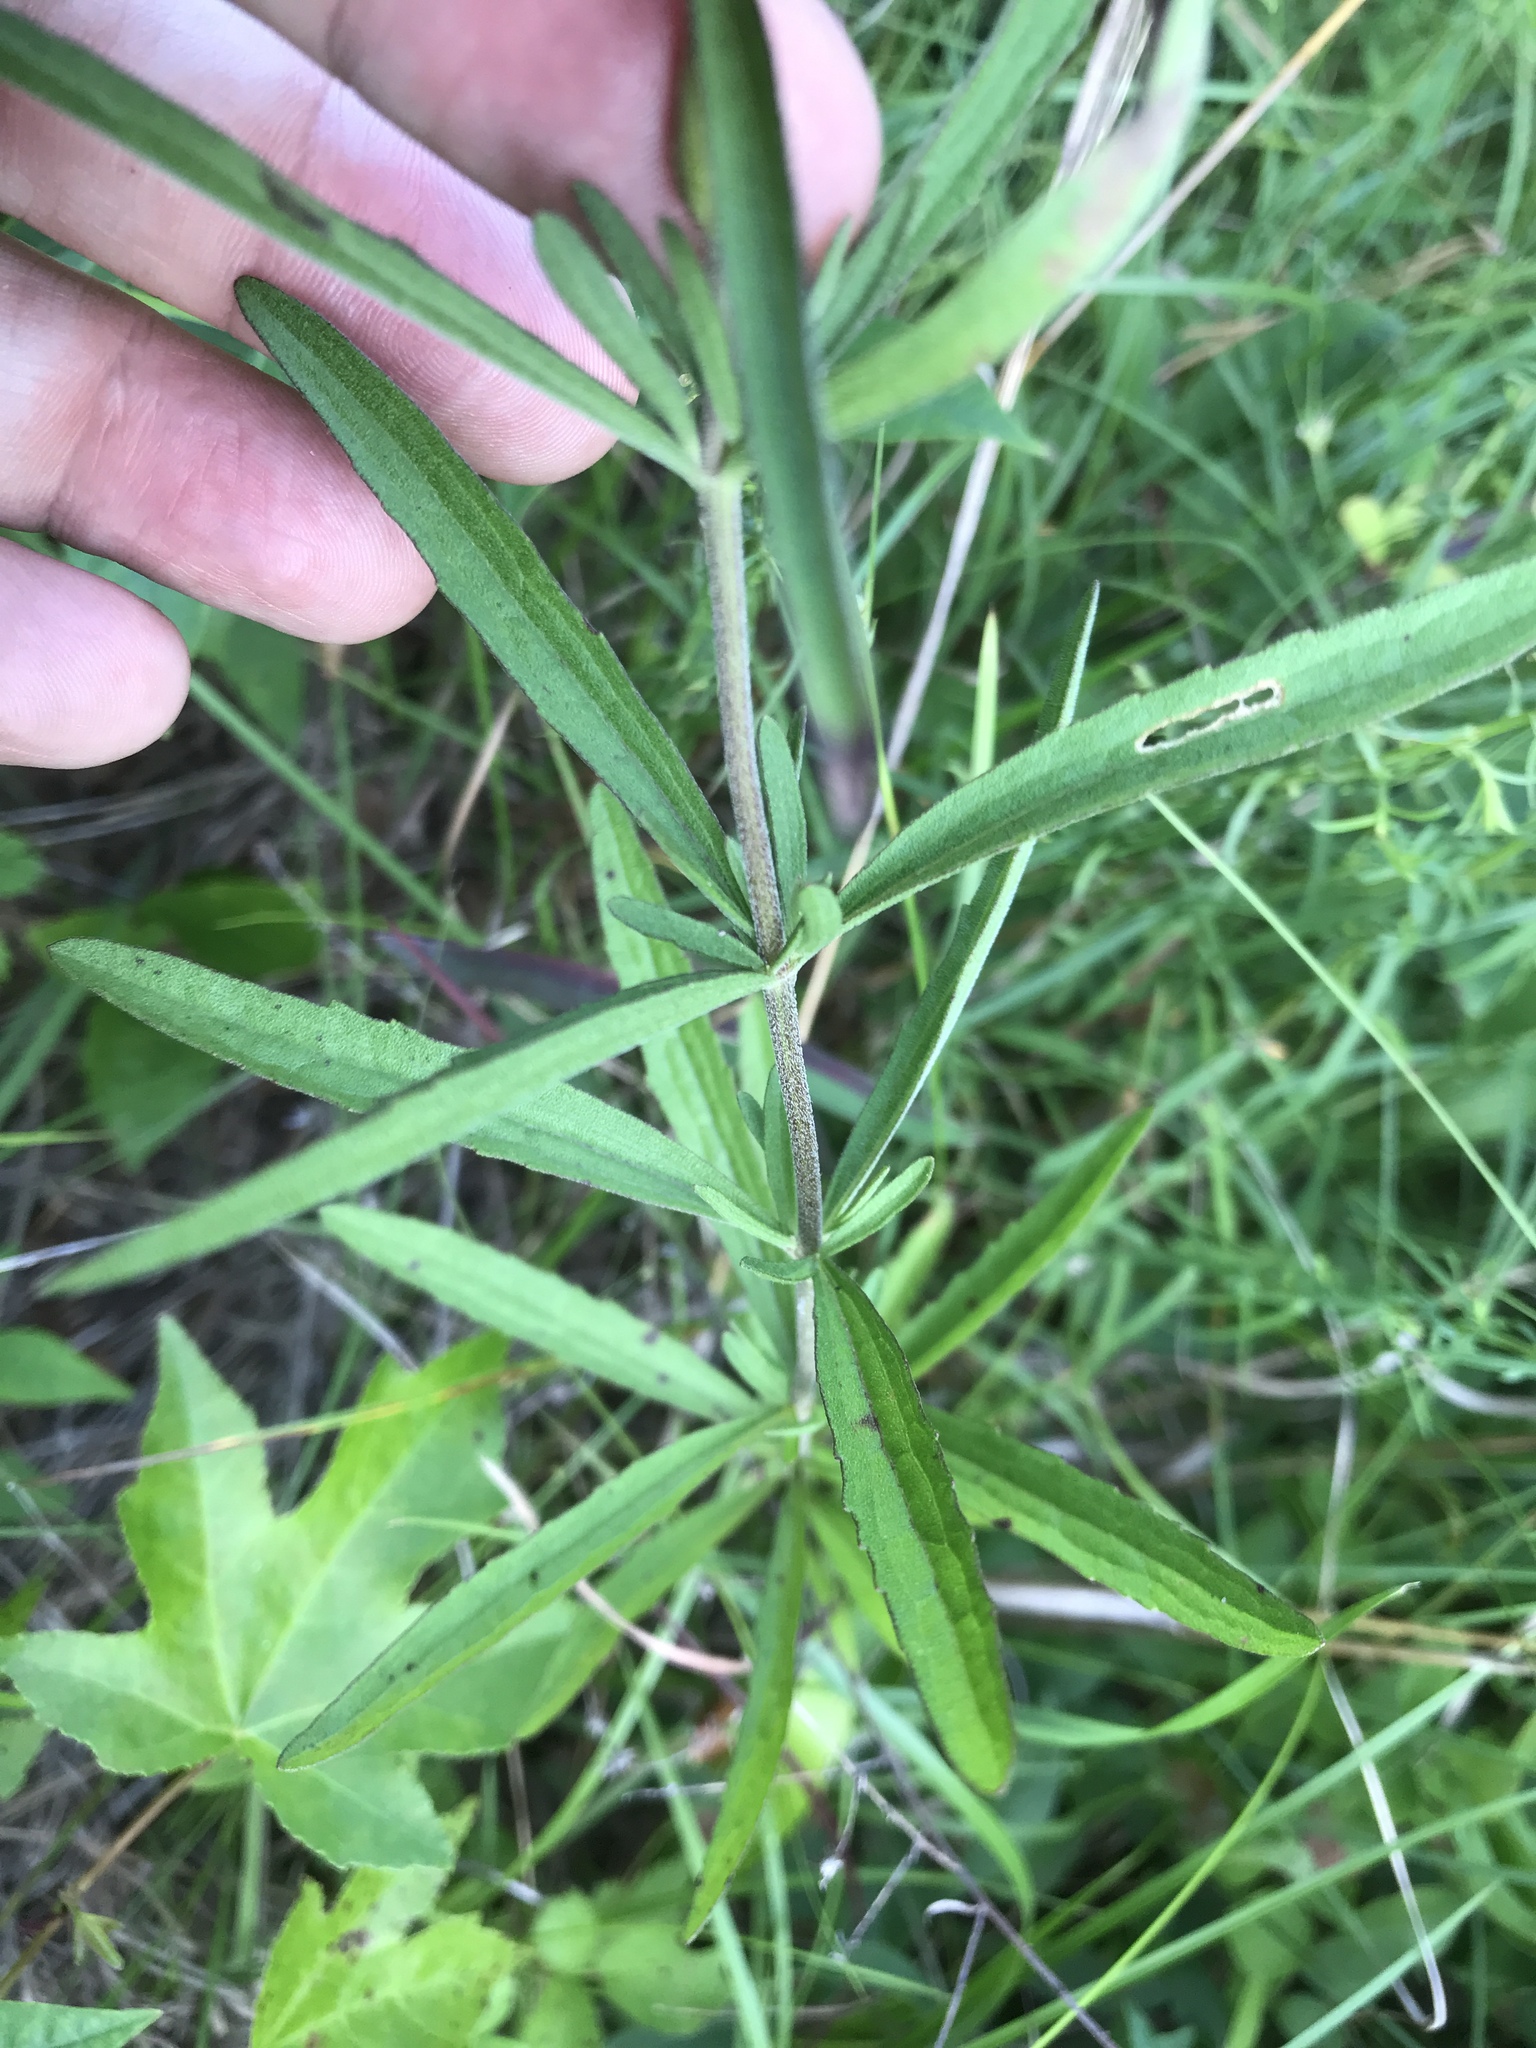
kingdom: Plantae
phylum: Tracheophyta
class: Magnoliopsida
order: Asterales
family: Asteraceae
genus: Eupatorium
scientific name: Eupatorium torreyanum
